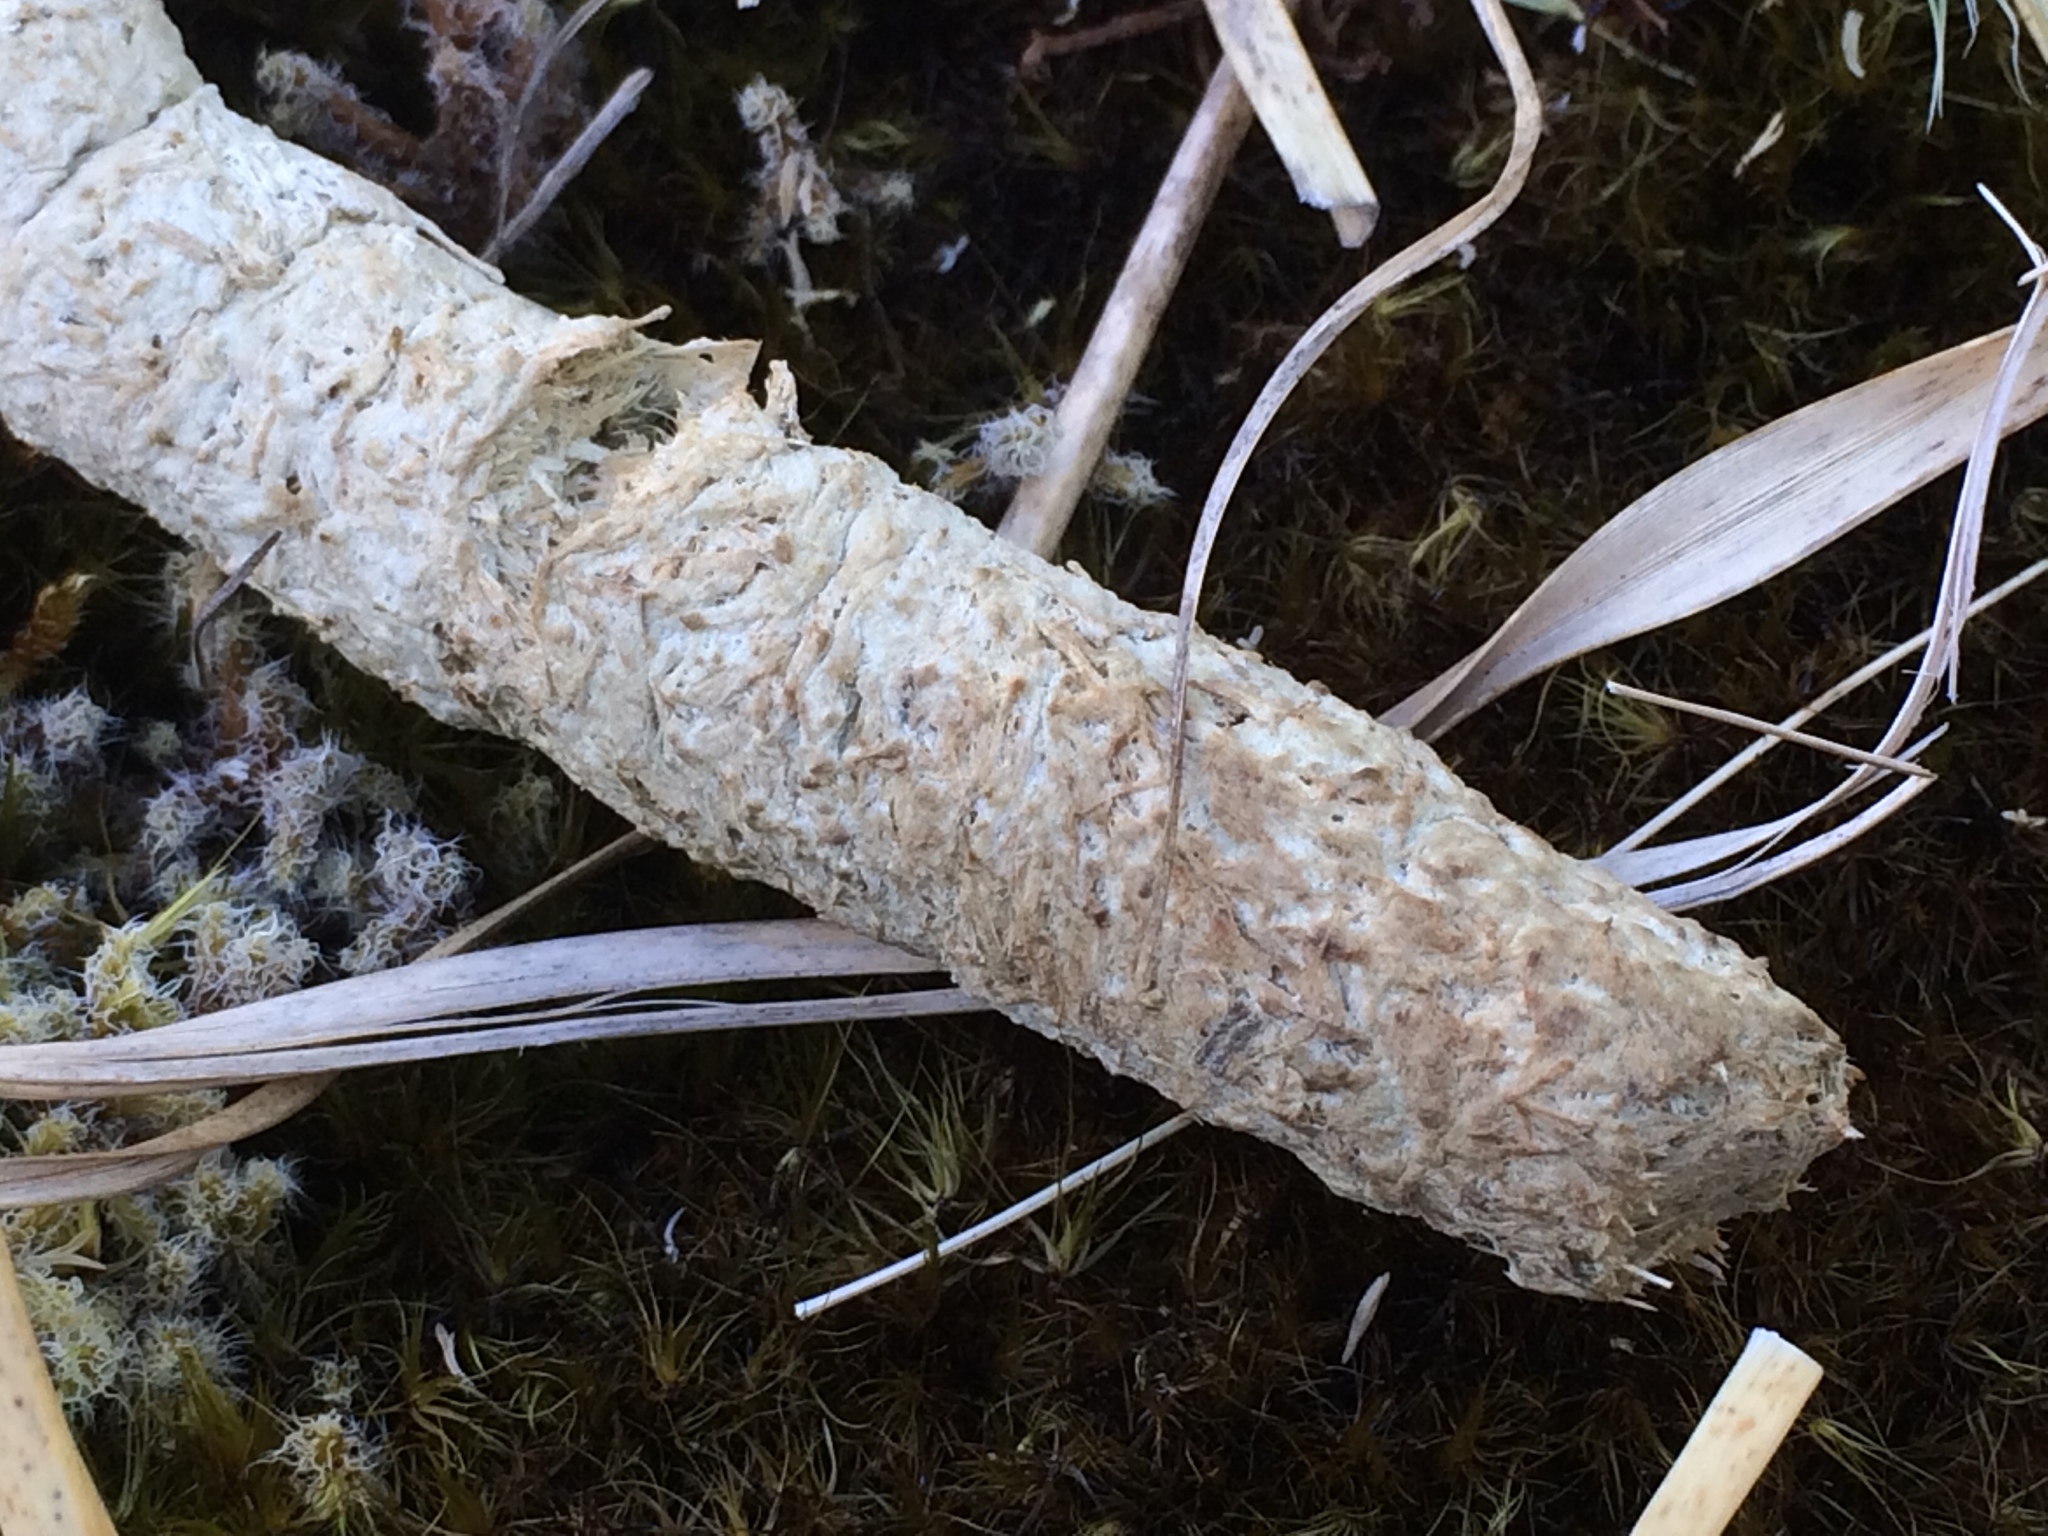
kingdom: Animalia
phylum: Chordata
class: Aves
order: Gruiformes
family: Rallidae
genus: Porphyrio
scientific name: Porphyrio hochstetteri
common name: South island takahe
